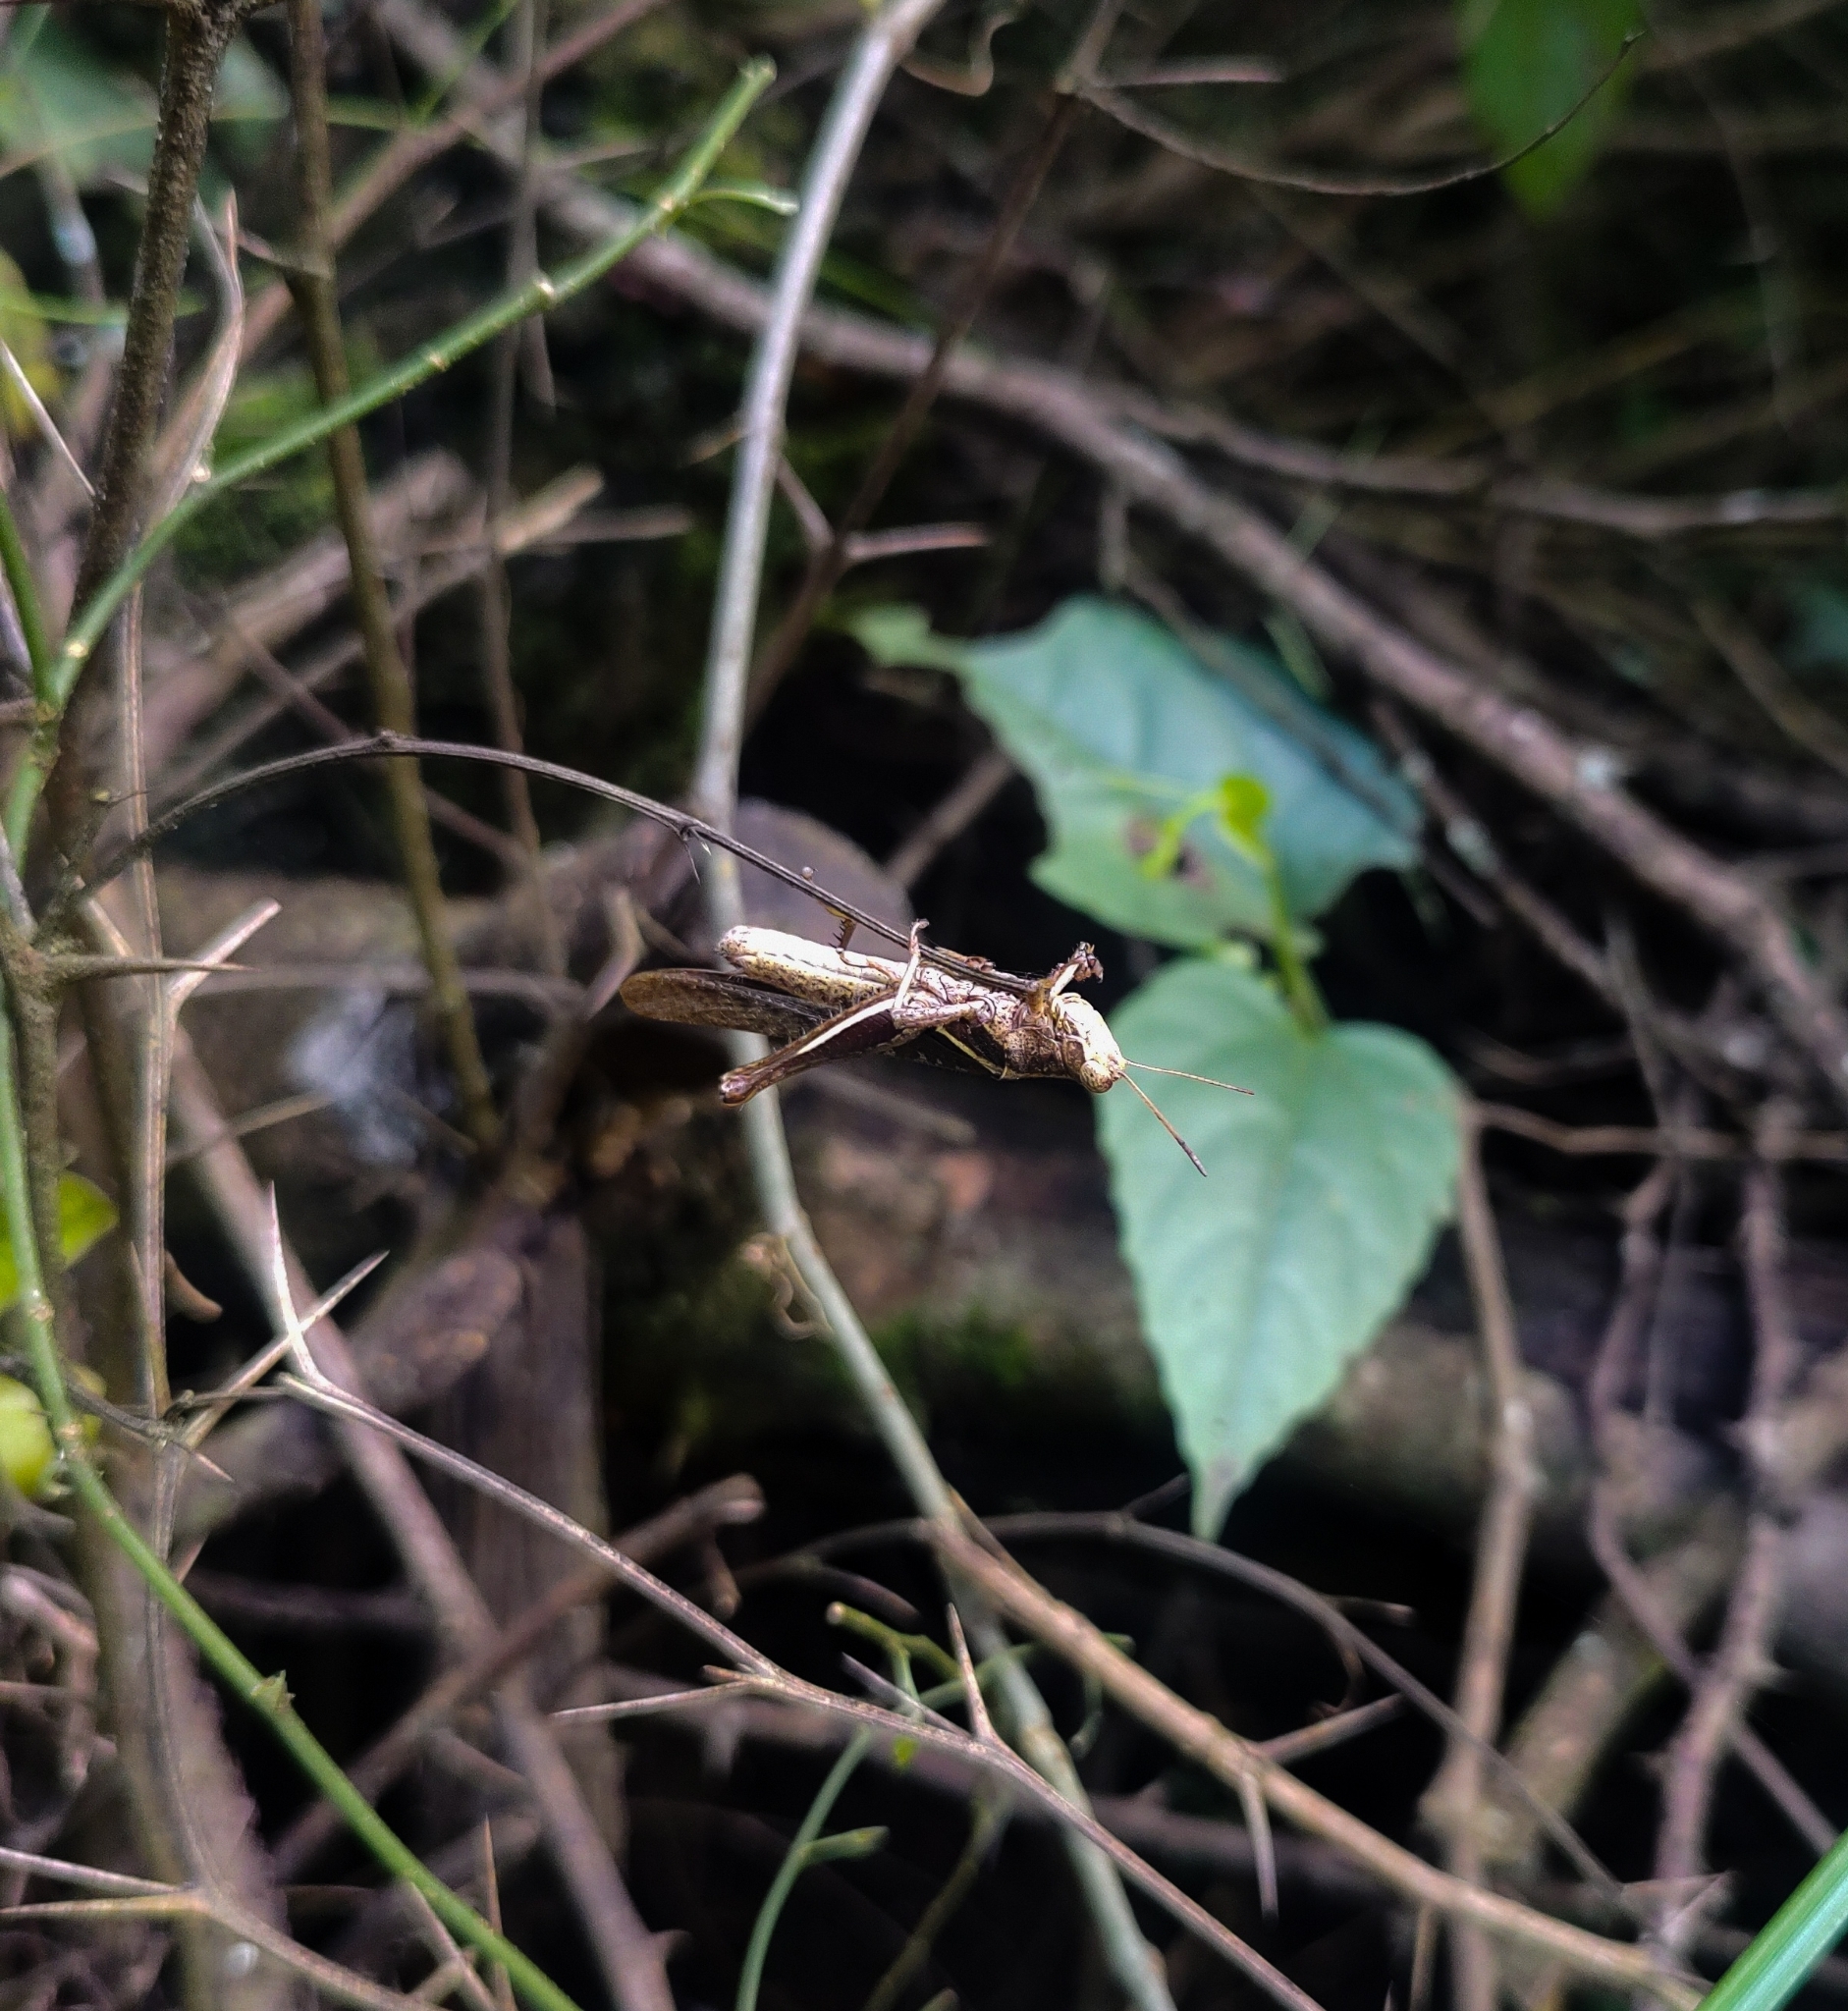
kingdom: Animalia
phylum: Arthropoda
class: Insecta
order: Orthoptera
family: Acrididae
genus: Abracris
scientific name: Abracris flavolineata
